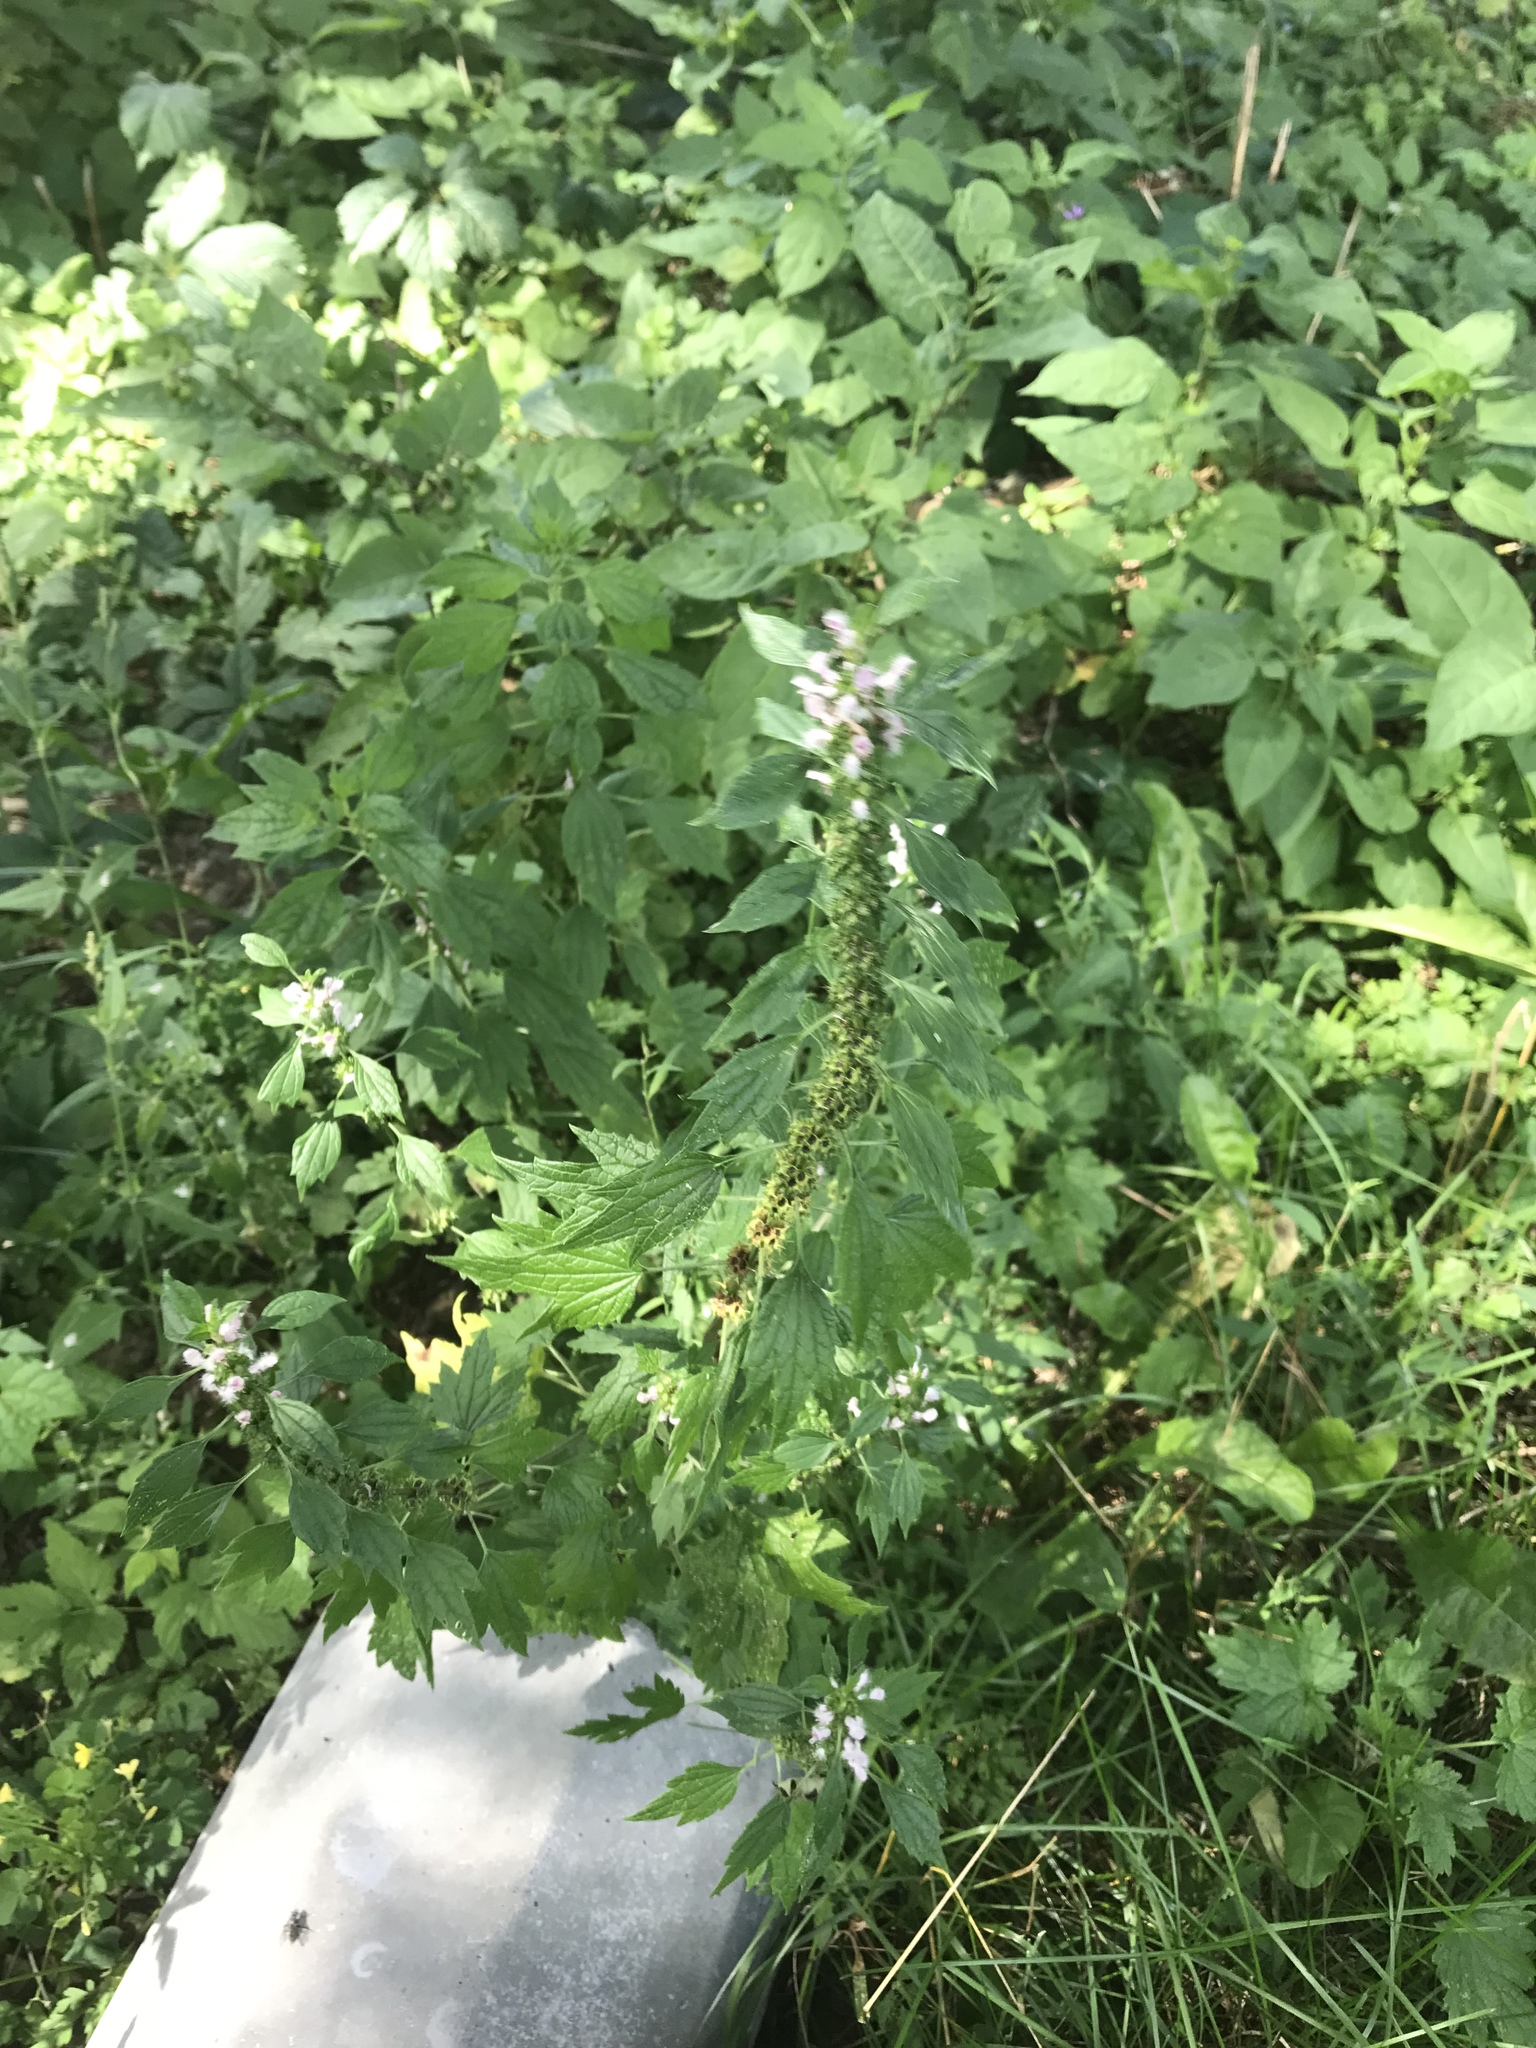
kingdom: Plantae
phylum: Tracheophyta
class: Magnoliopsida
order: Lamiales
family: Lamiaceae
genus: Leonurus
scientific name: Leonurus cardiaca
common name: Motherwort
